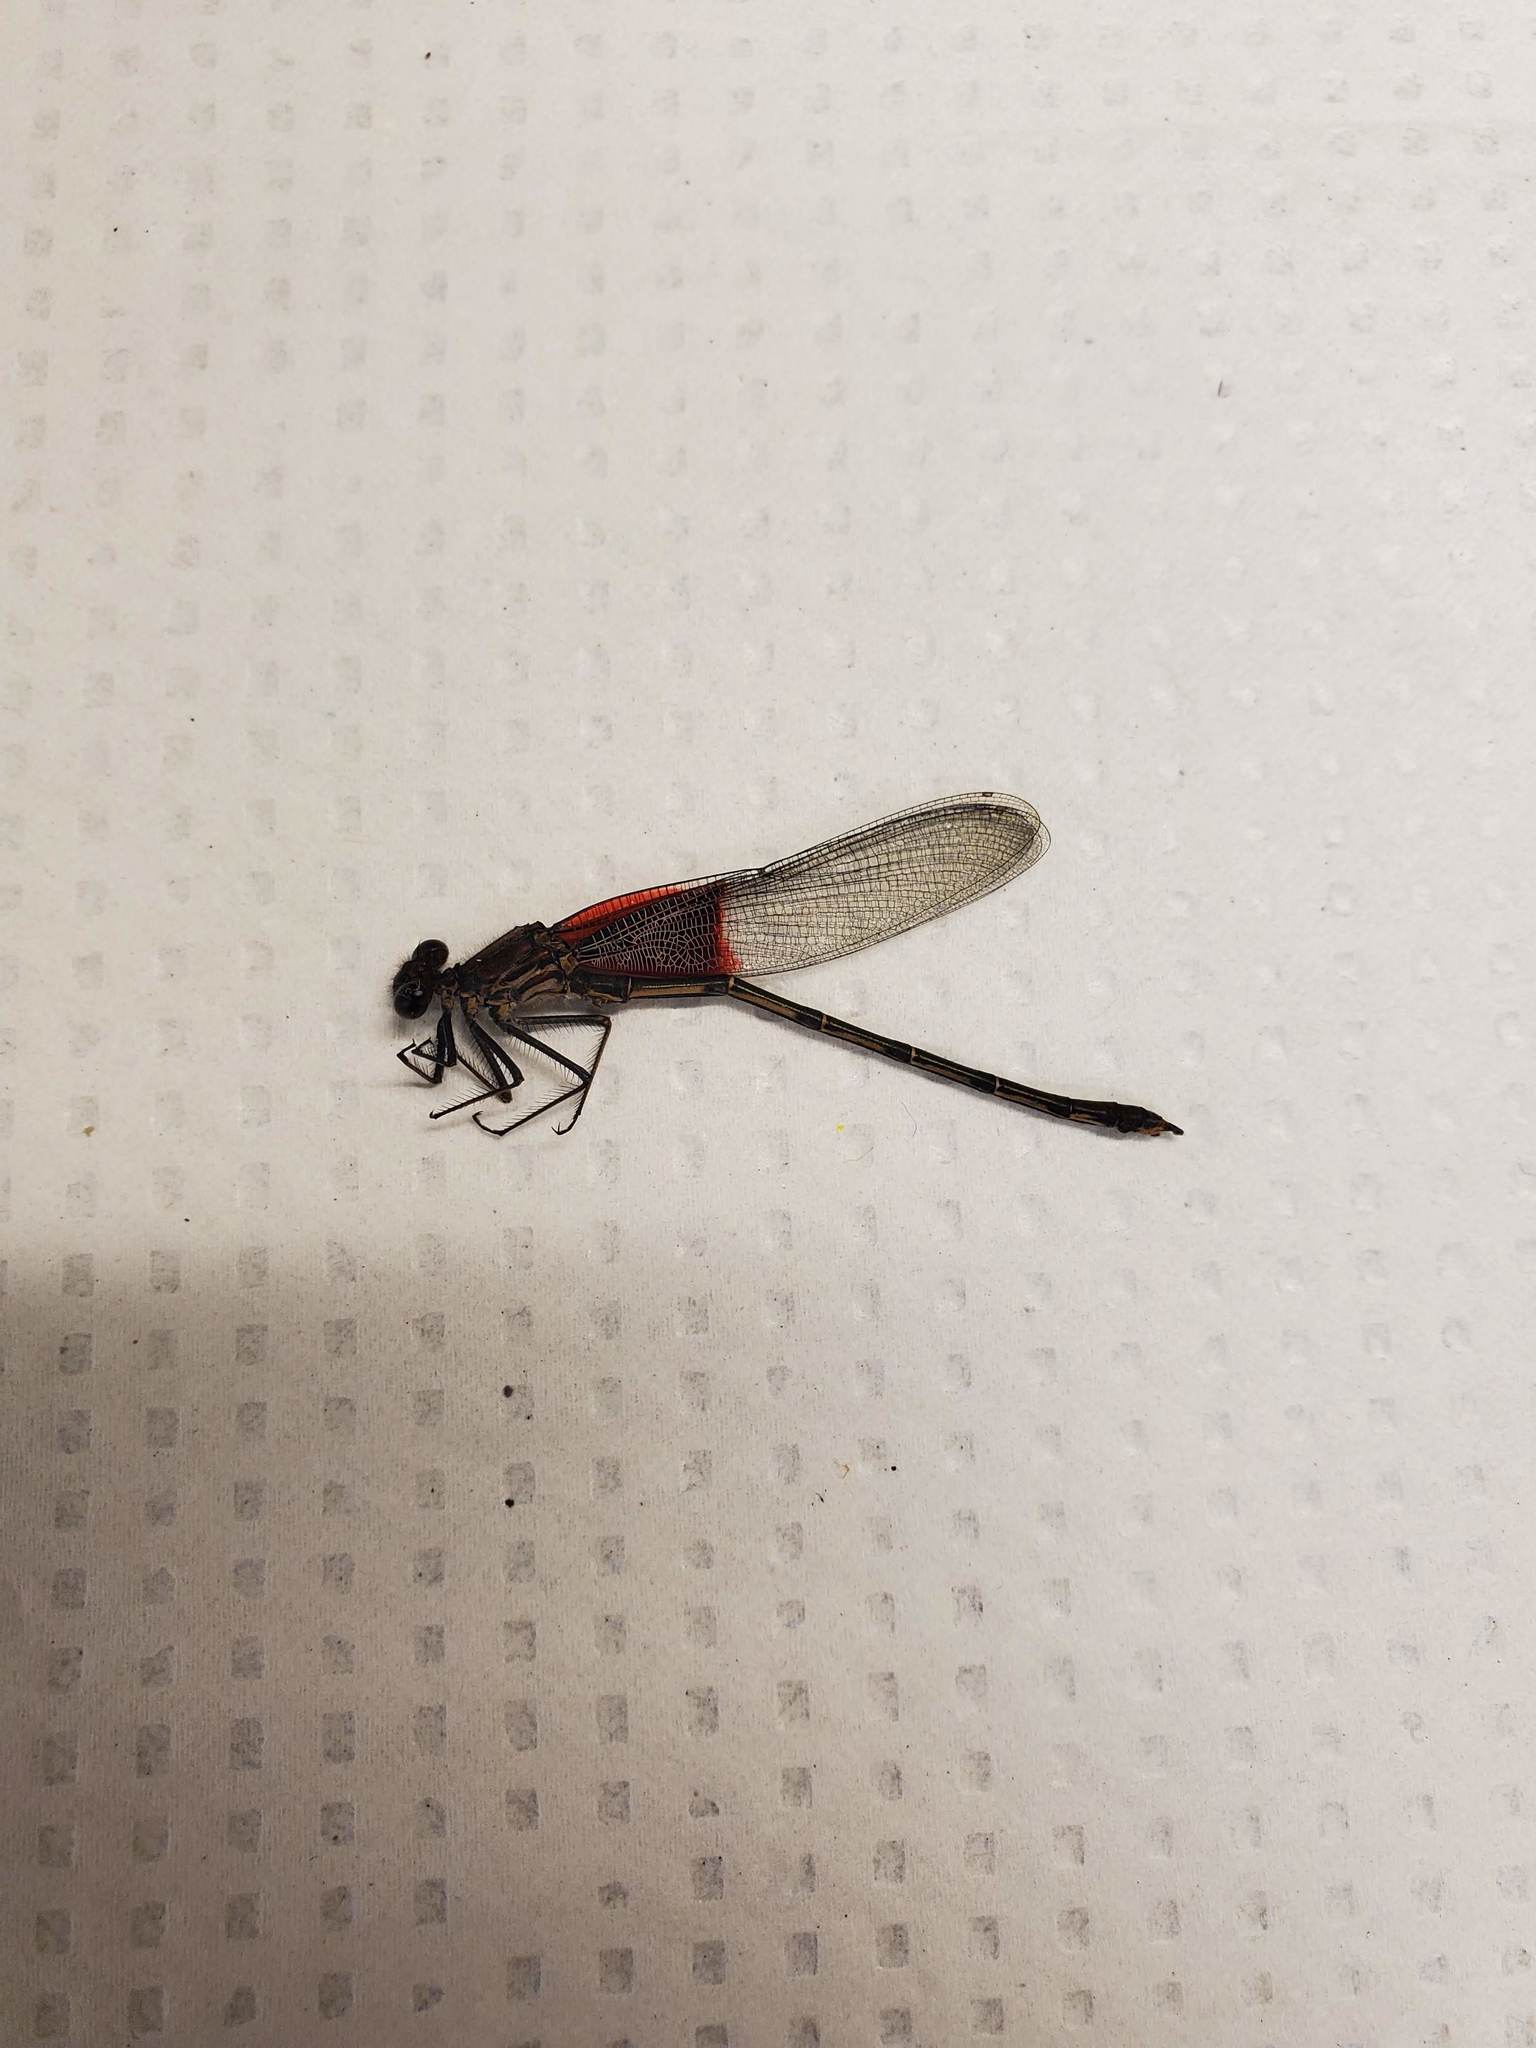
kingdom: Animalia
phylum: Arthropoda
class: Insecta
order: Odonata
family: Calopterygidae
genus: Hetaerina
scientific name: Hetaerina americana
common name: American rubyspot
